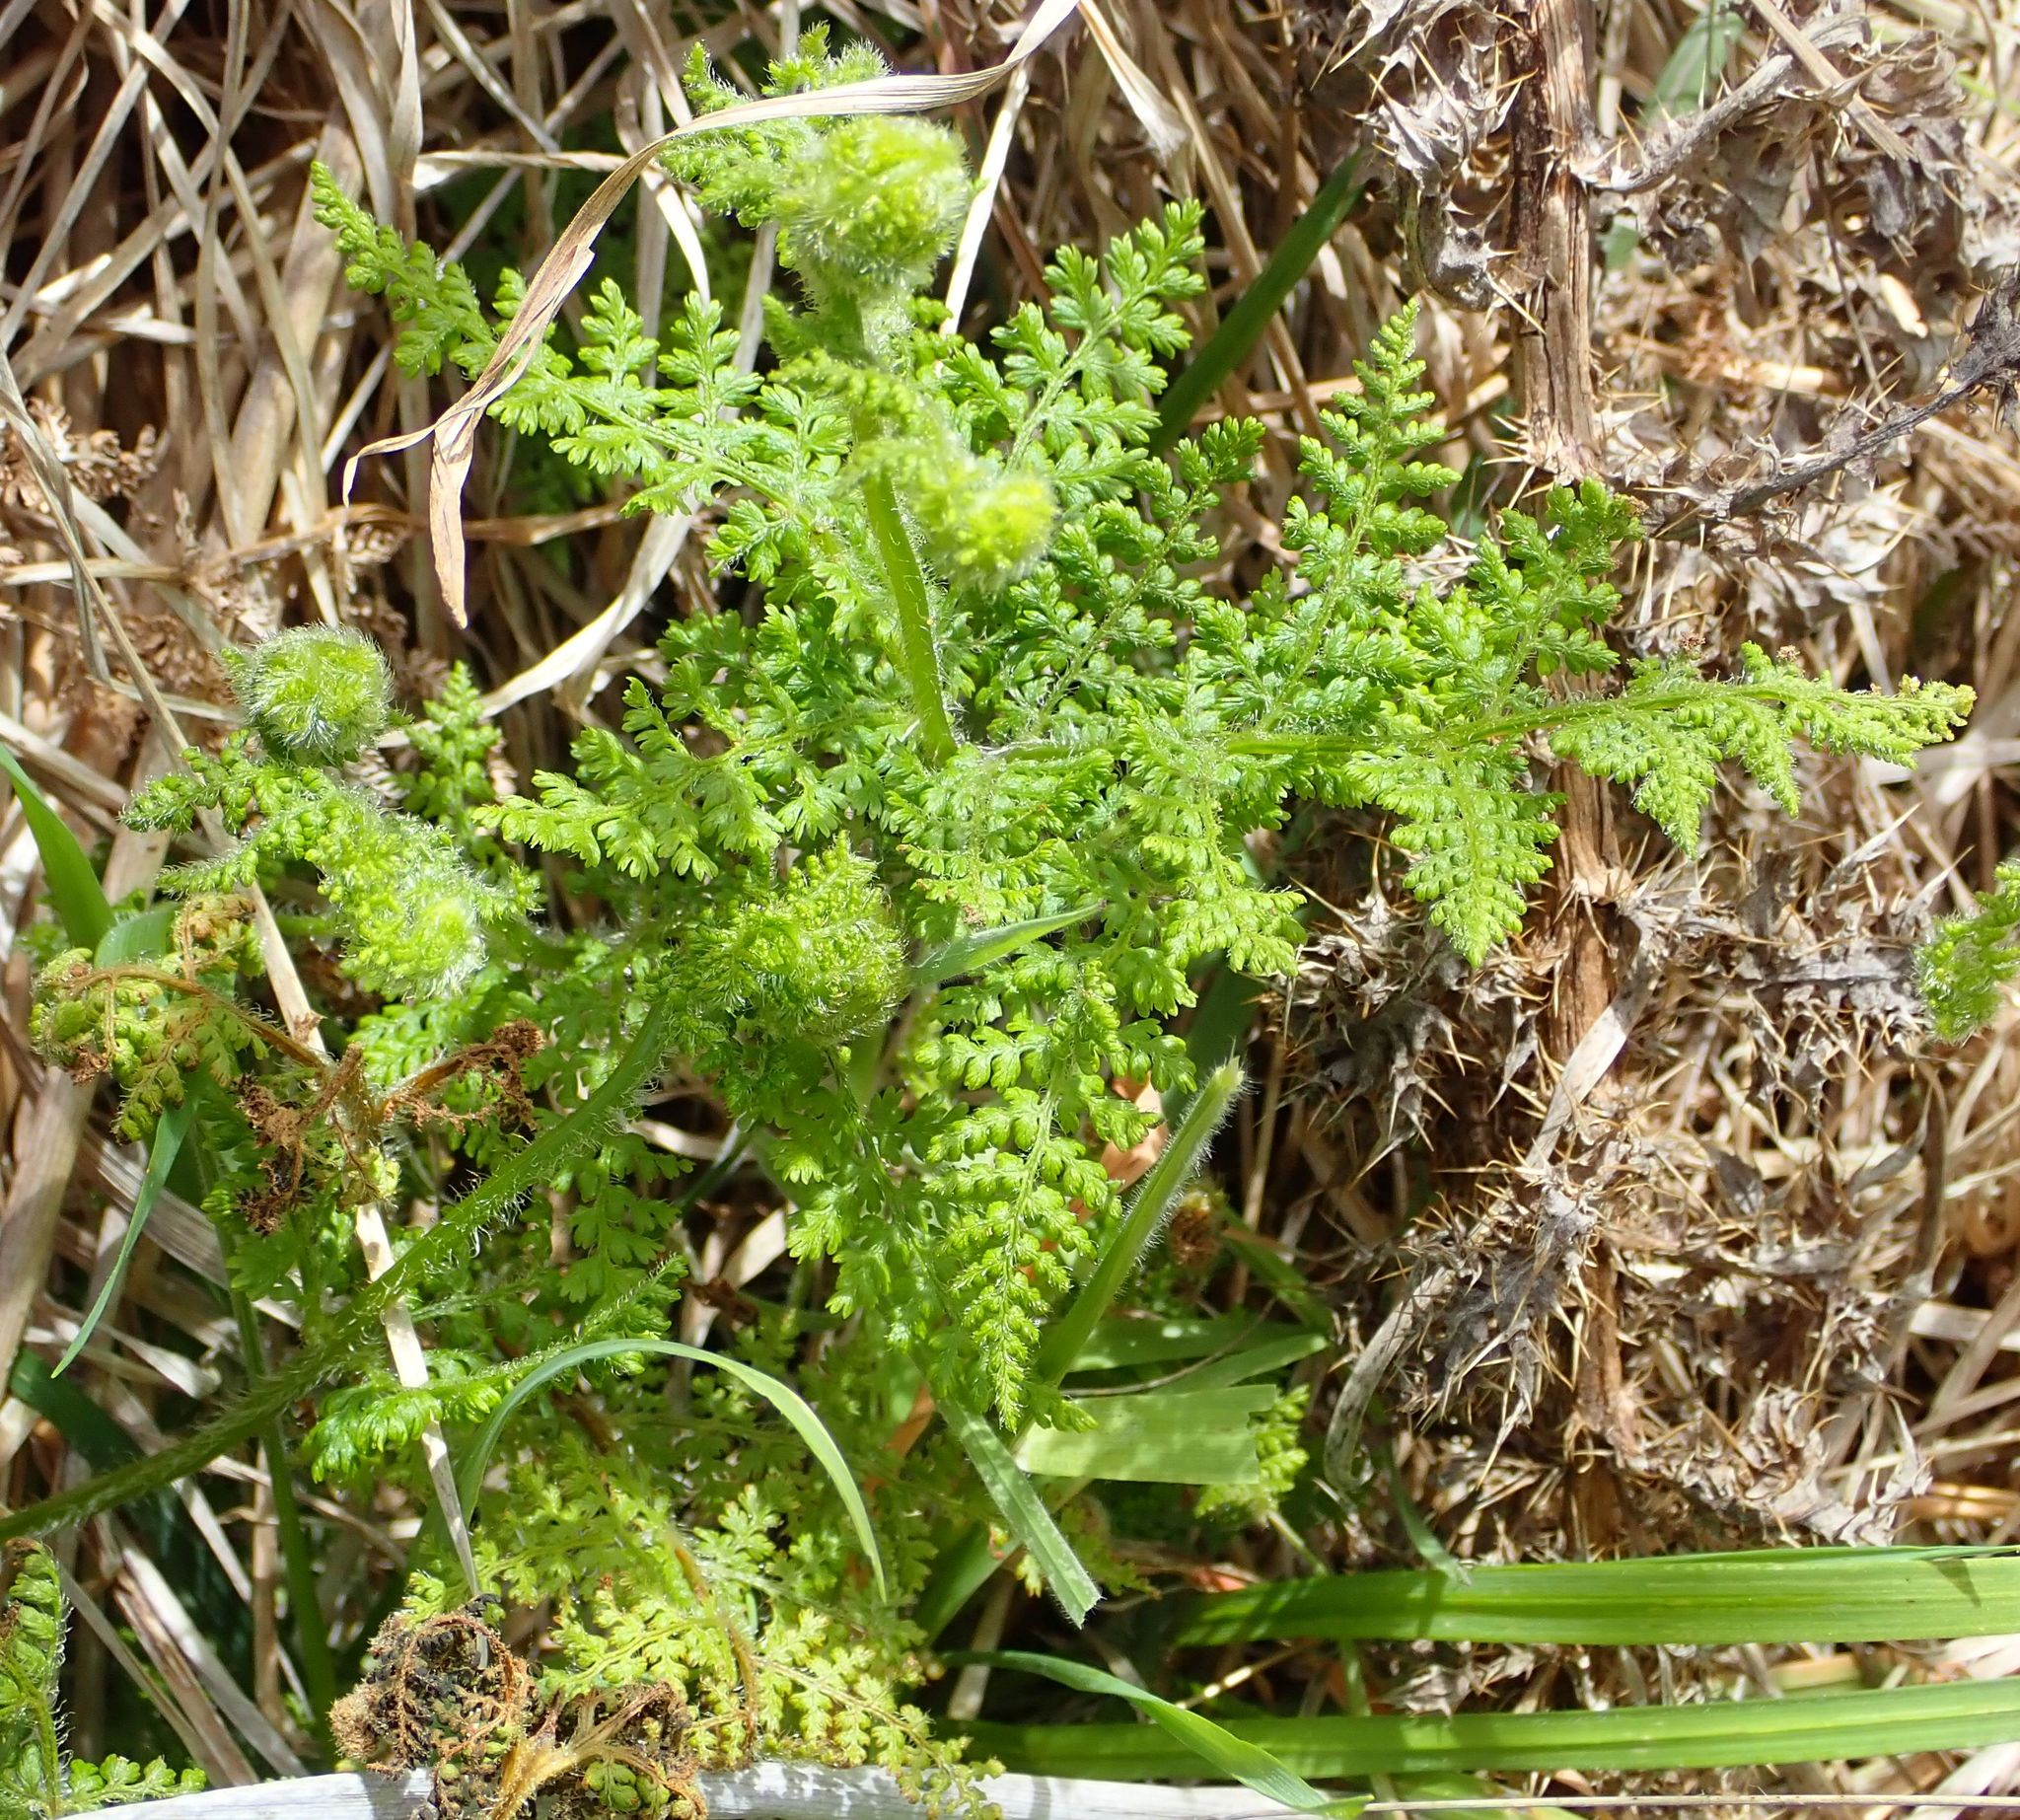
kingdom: Plantae
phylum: Tracheophyta
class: Polypodiopsida
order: Polypodiales
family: Dennstaedtiaceae
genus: Hypolepis
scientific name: Hypolepis millefolium
